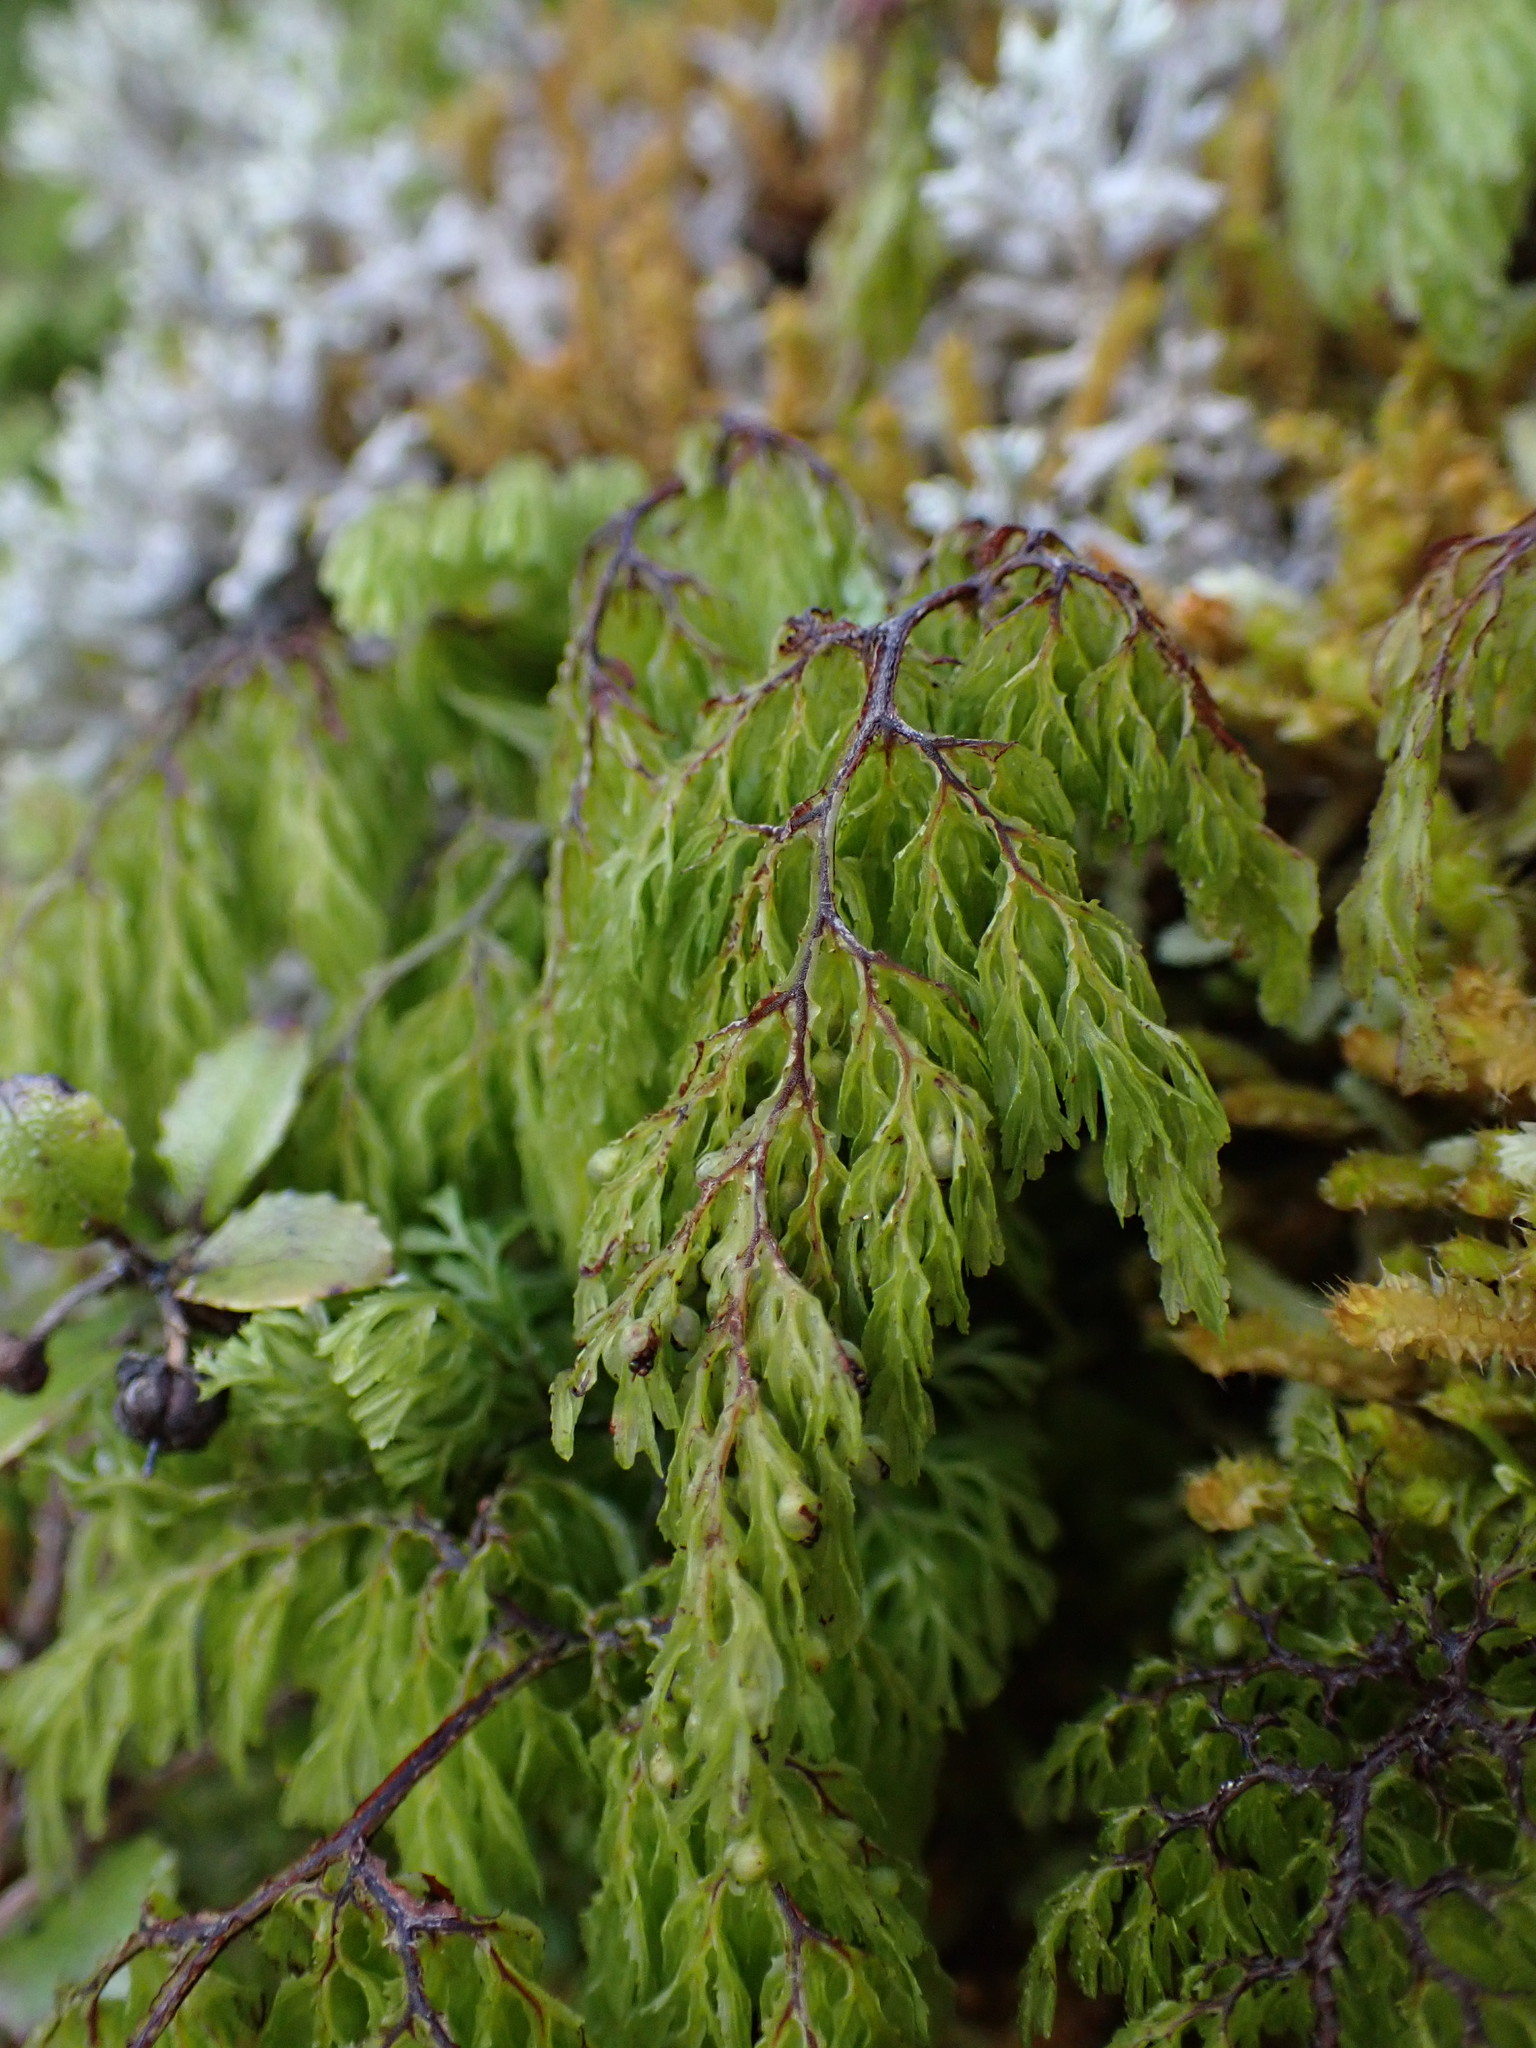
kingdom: Plantae
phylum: Tracheophyta
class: Polypodiopsida
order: Hymenophyllales
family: Hymenophyllaceae
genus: Hymenophyllum
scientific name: Hymenophyllum bivalve
